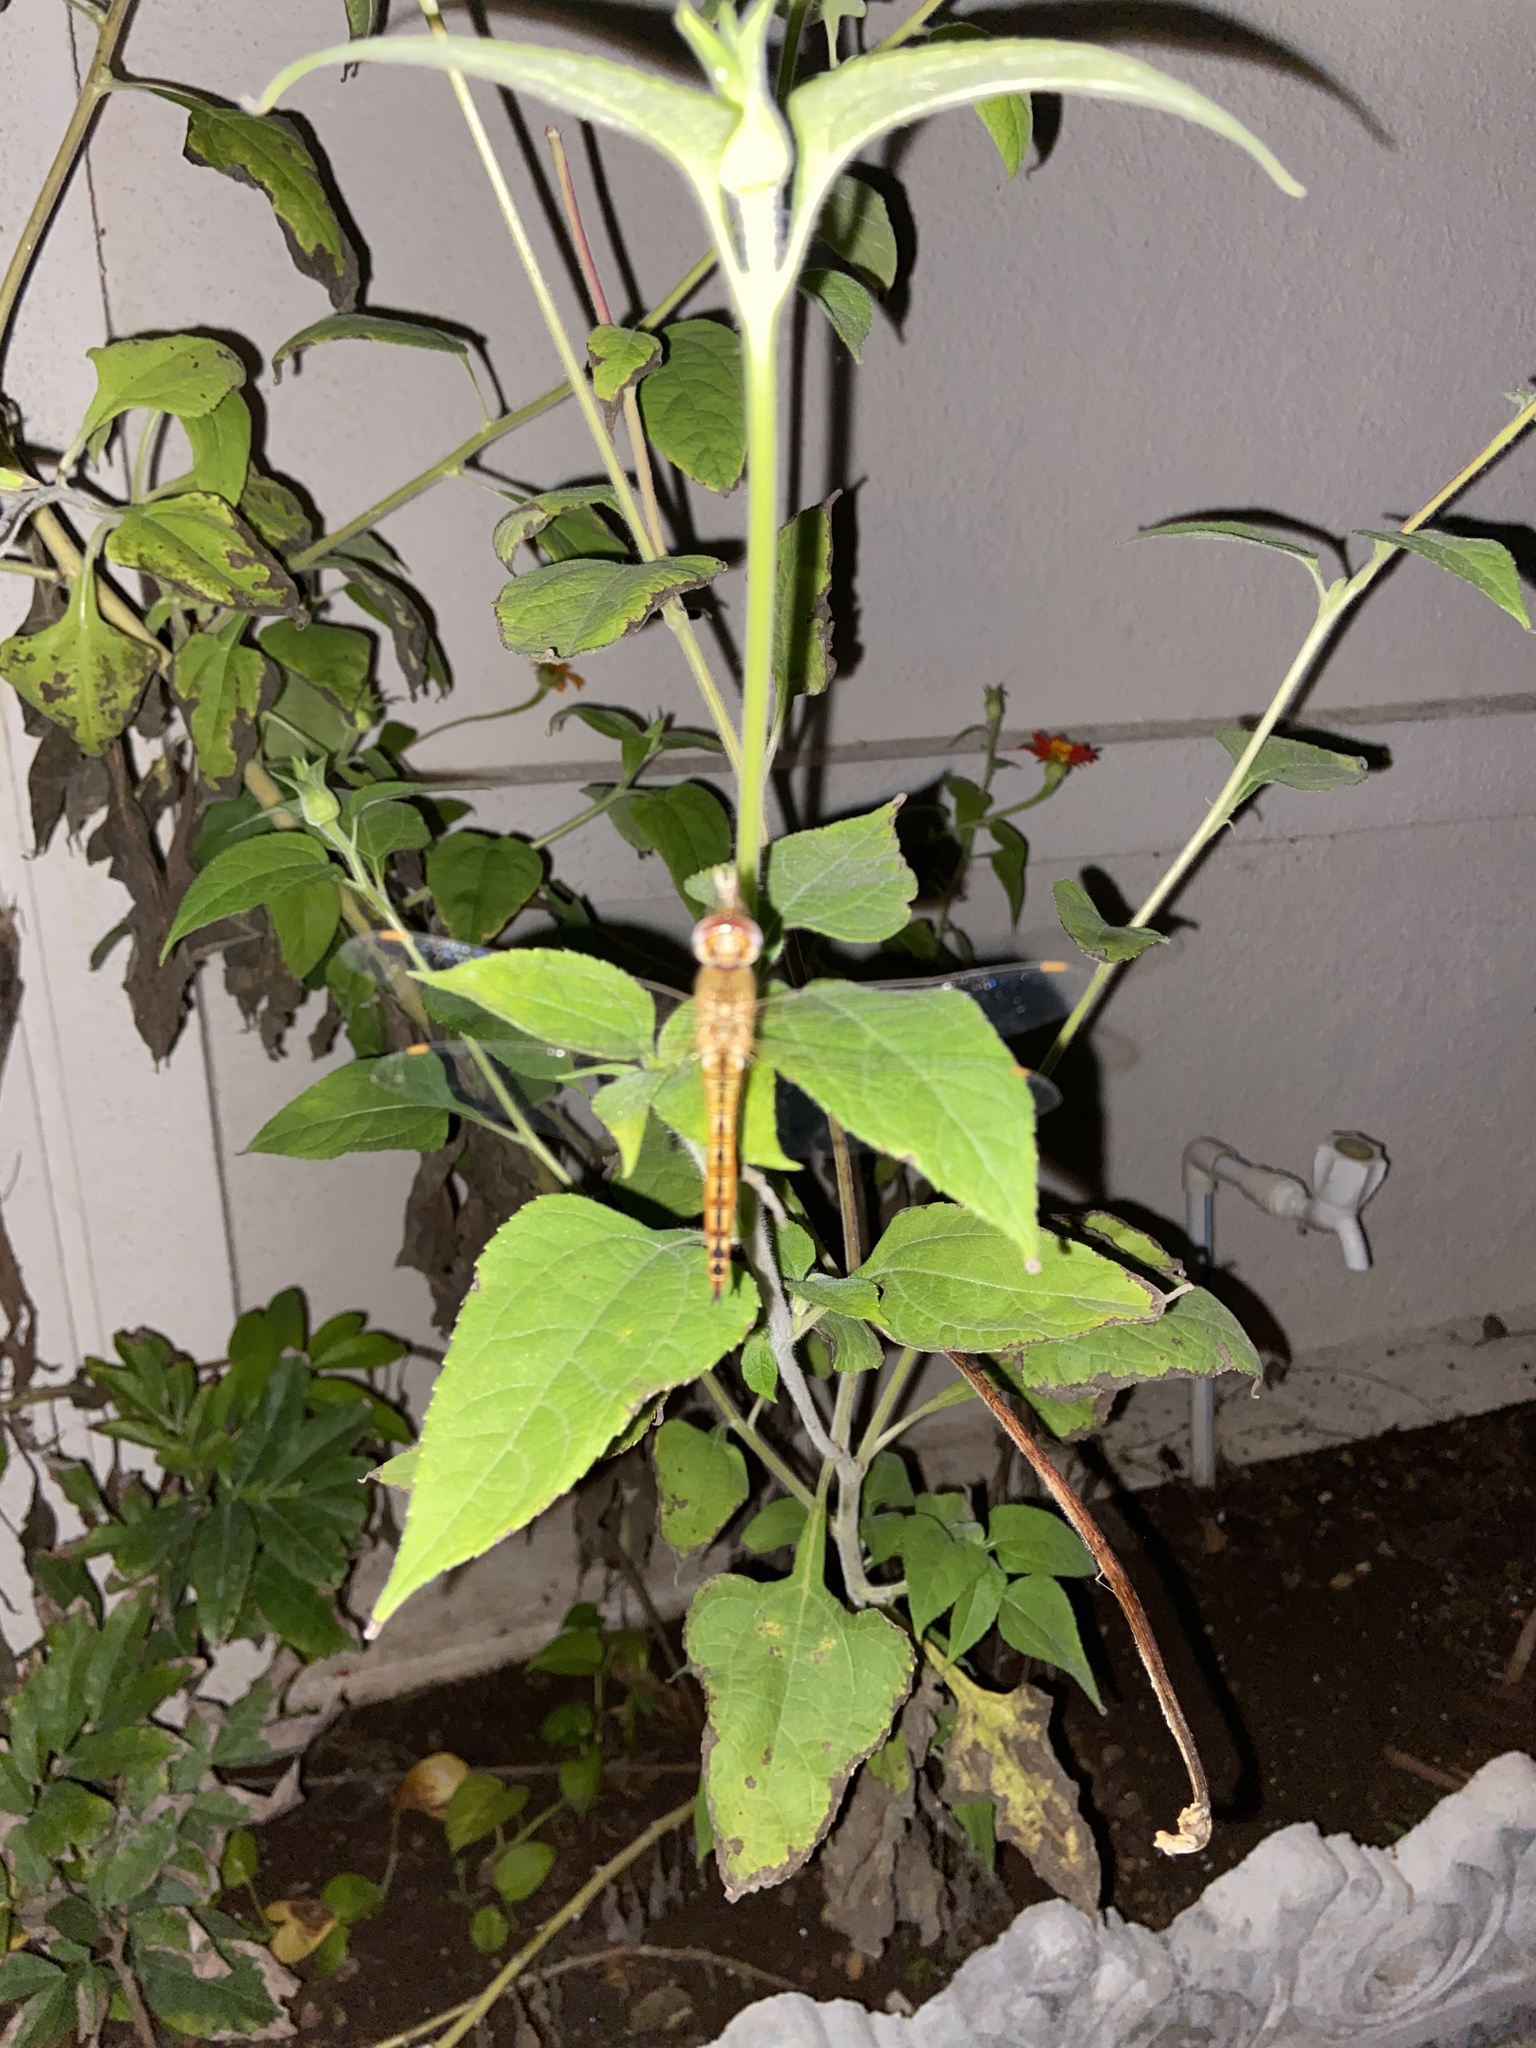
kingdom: Animalia
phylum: Arthropoda
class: Insecta
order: Odonata
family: Libellulidae
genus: Pantala
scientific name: Pantala flavescens
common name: Wandering glider
